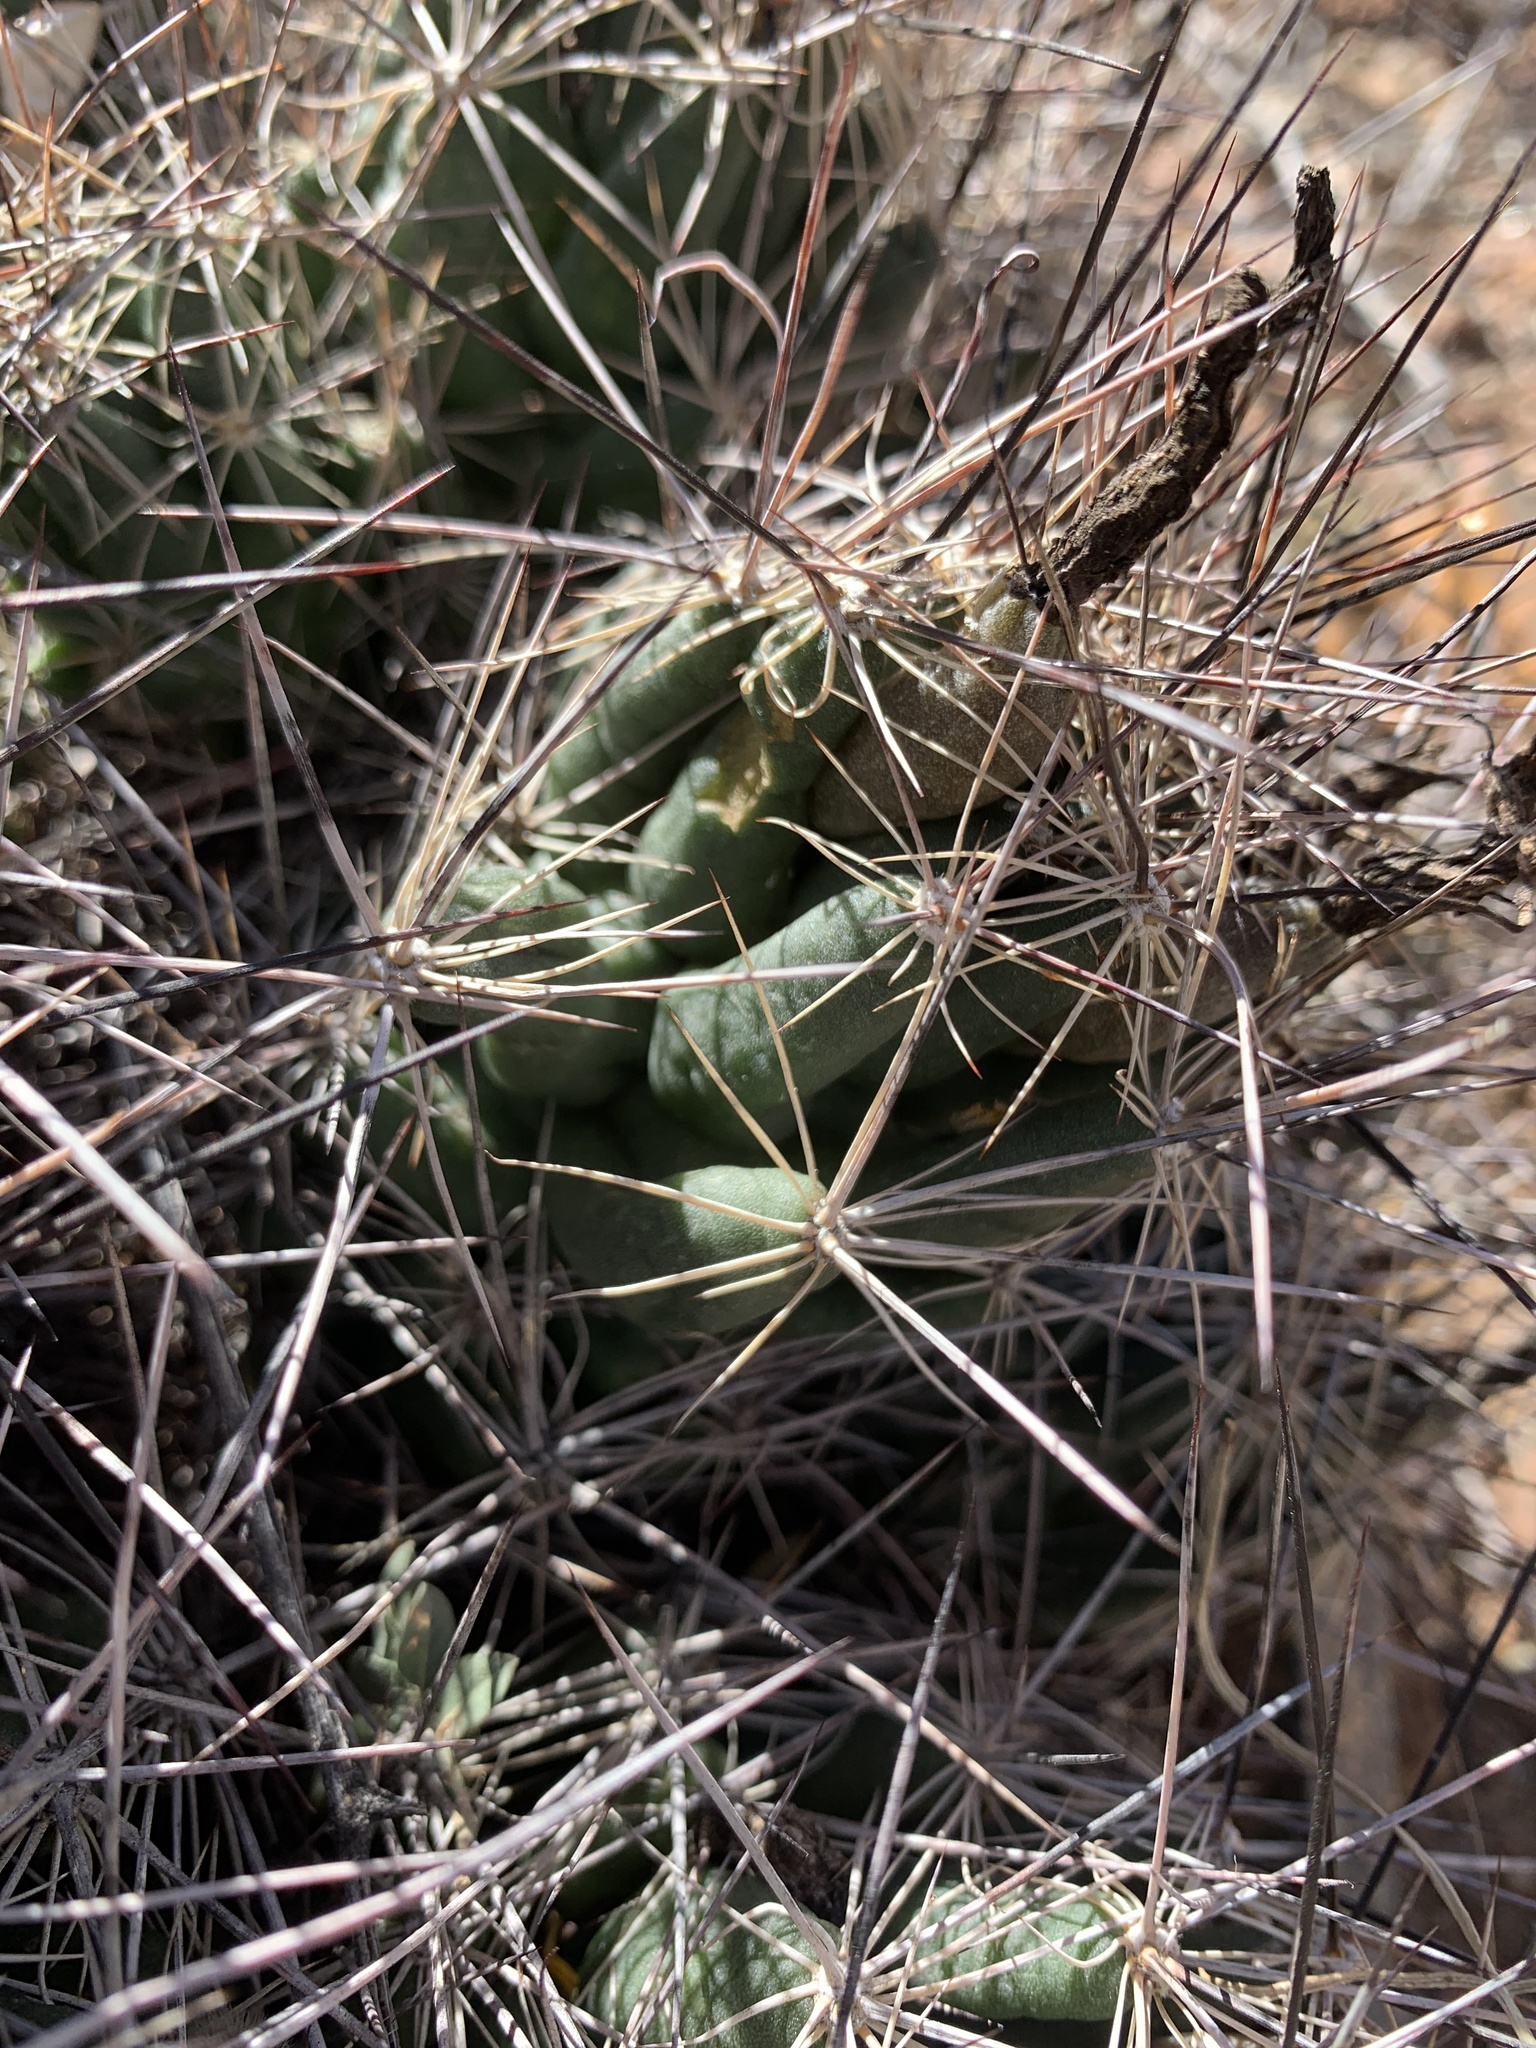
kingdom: Plantae
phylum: Tracheophyta
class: Magnoliopsida
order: Caryophyllales
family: Cactaceae
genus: Coryphantha
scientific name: Coryphantha macromeris
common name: Nipple beehive cactus
